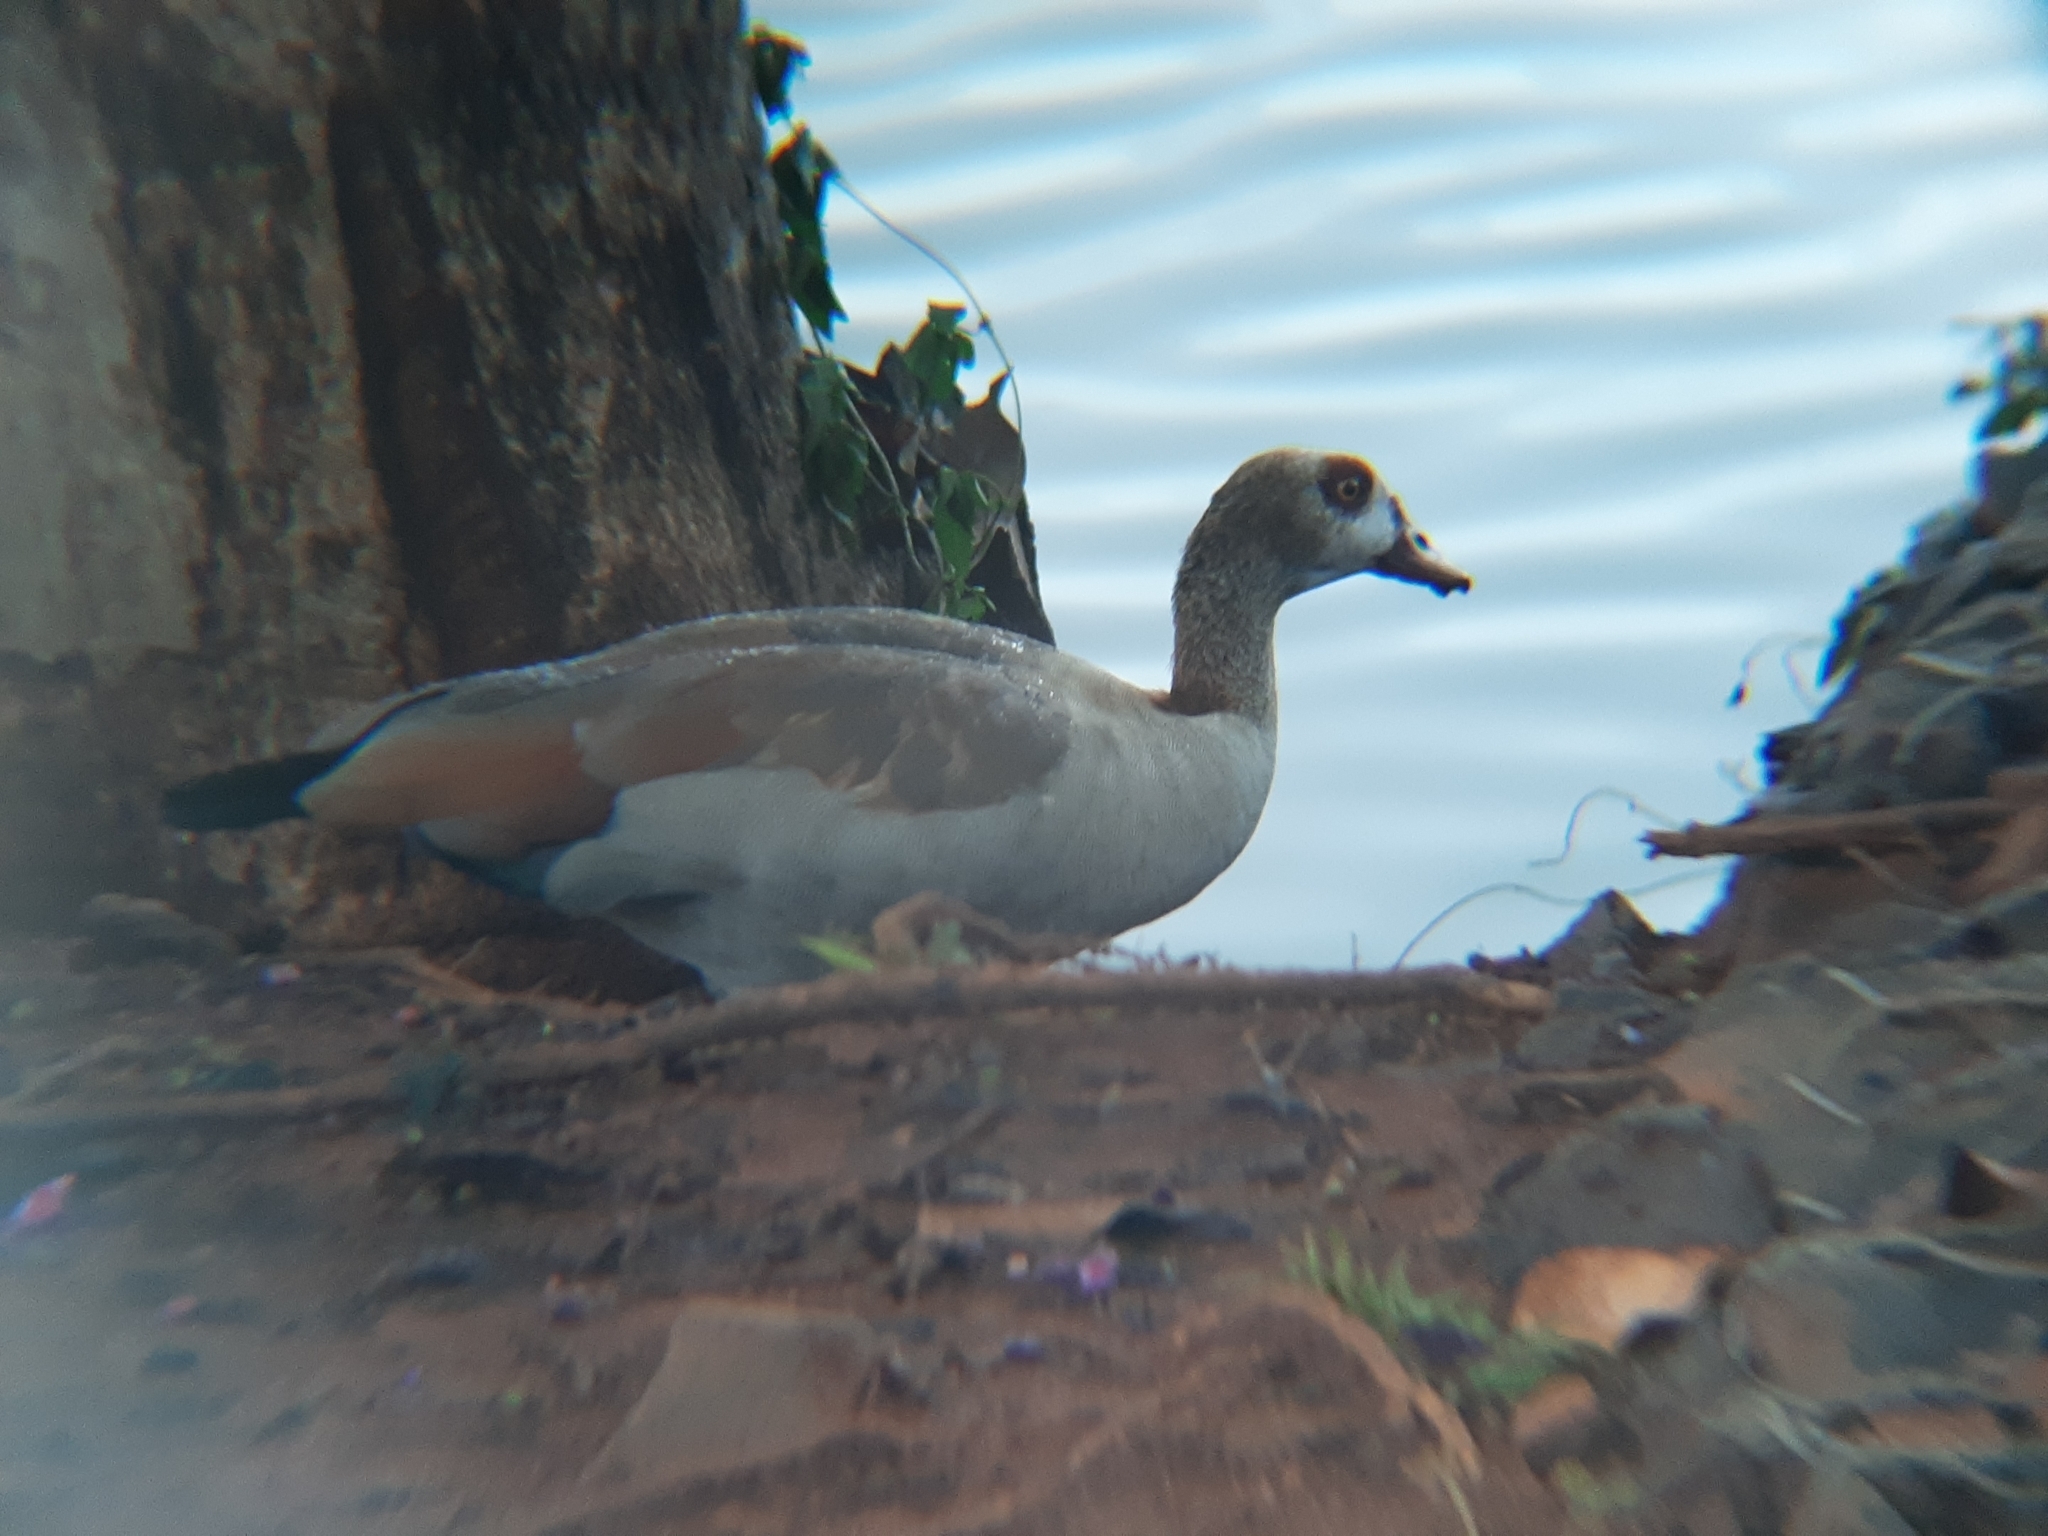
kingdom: Animalia
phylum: Chordata
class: Aves
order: Anseriformes
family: Anatidae
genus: Alopochen
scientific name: Alopochen aegyptiaca
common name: Egyptian goose
